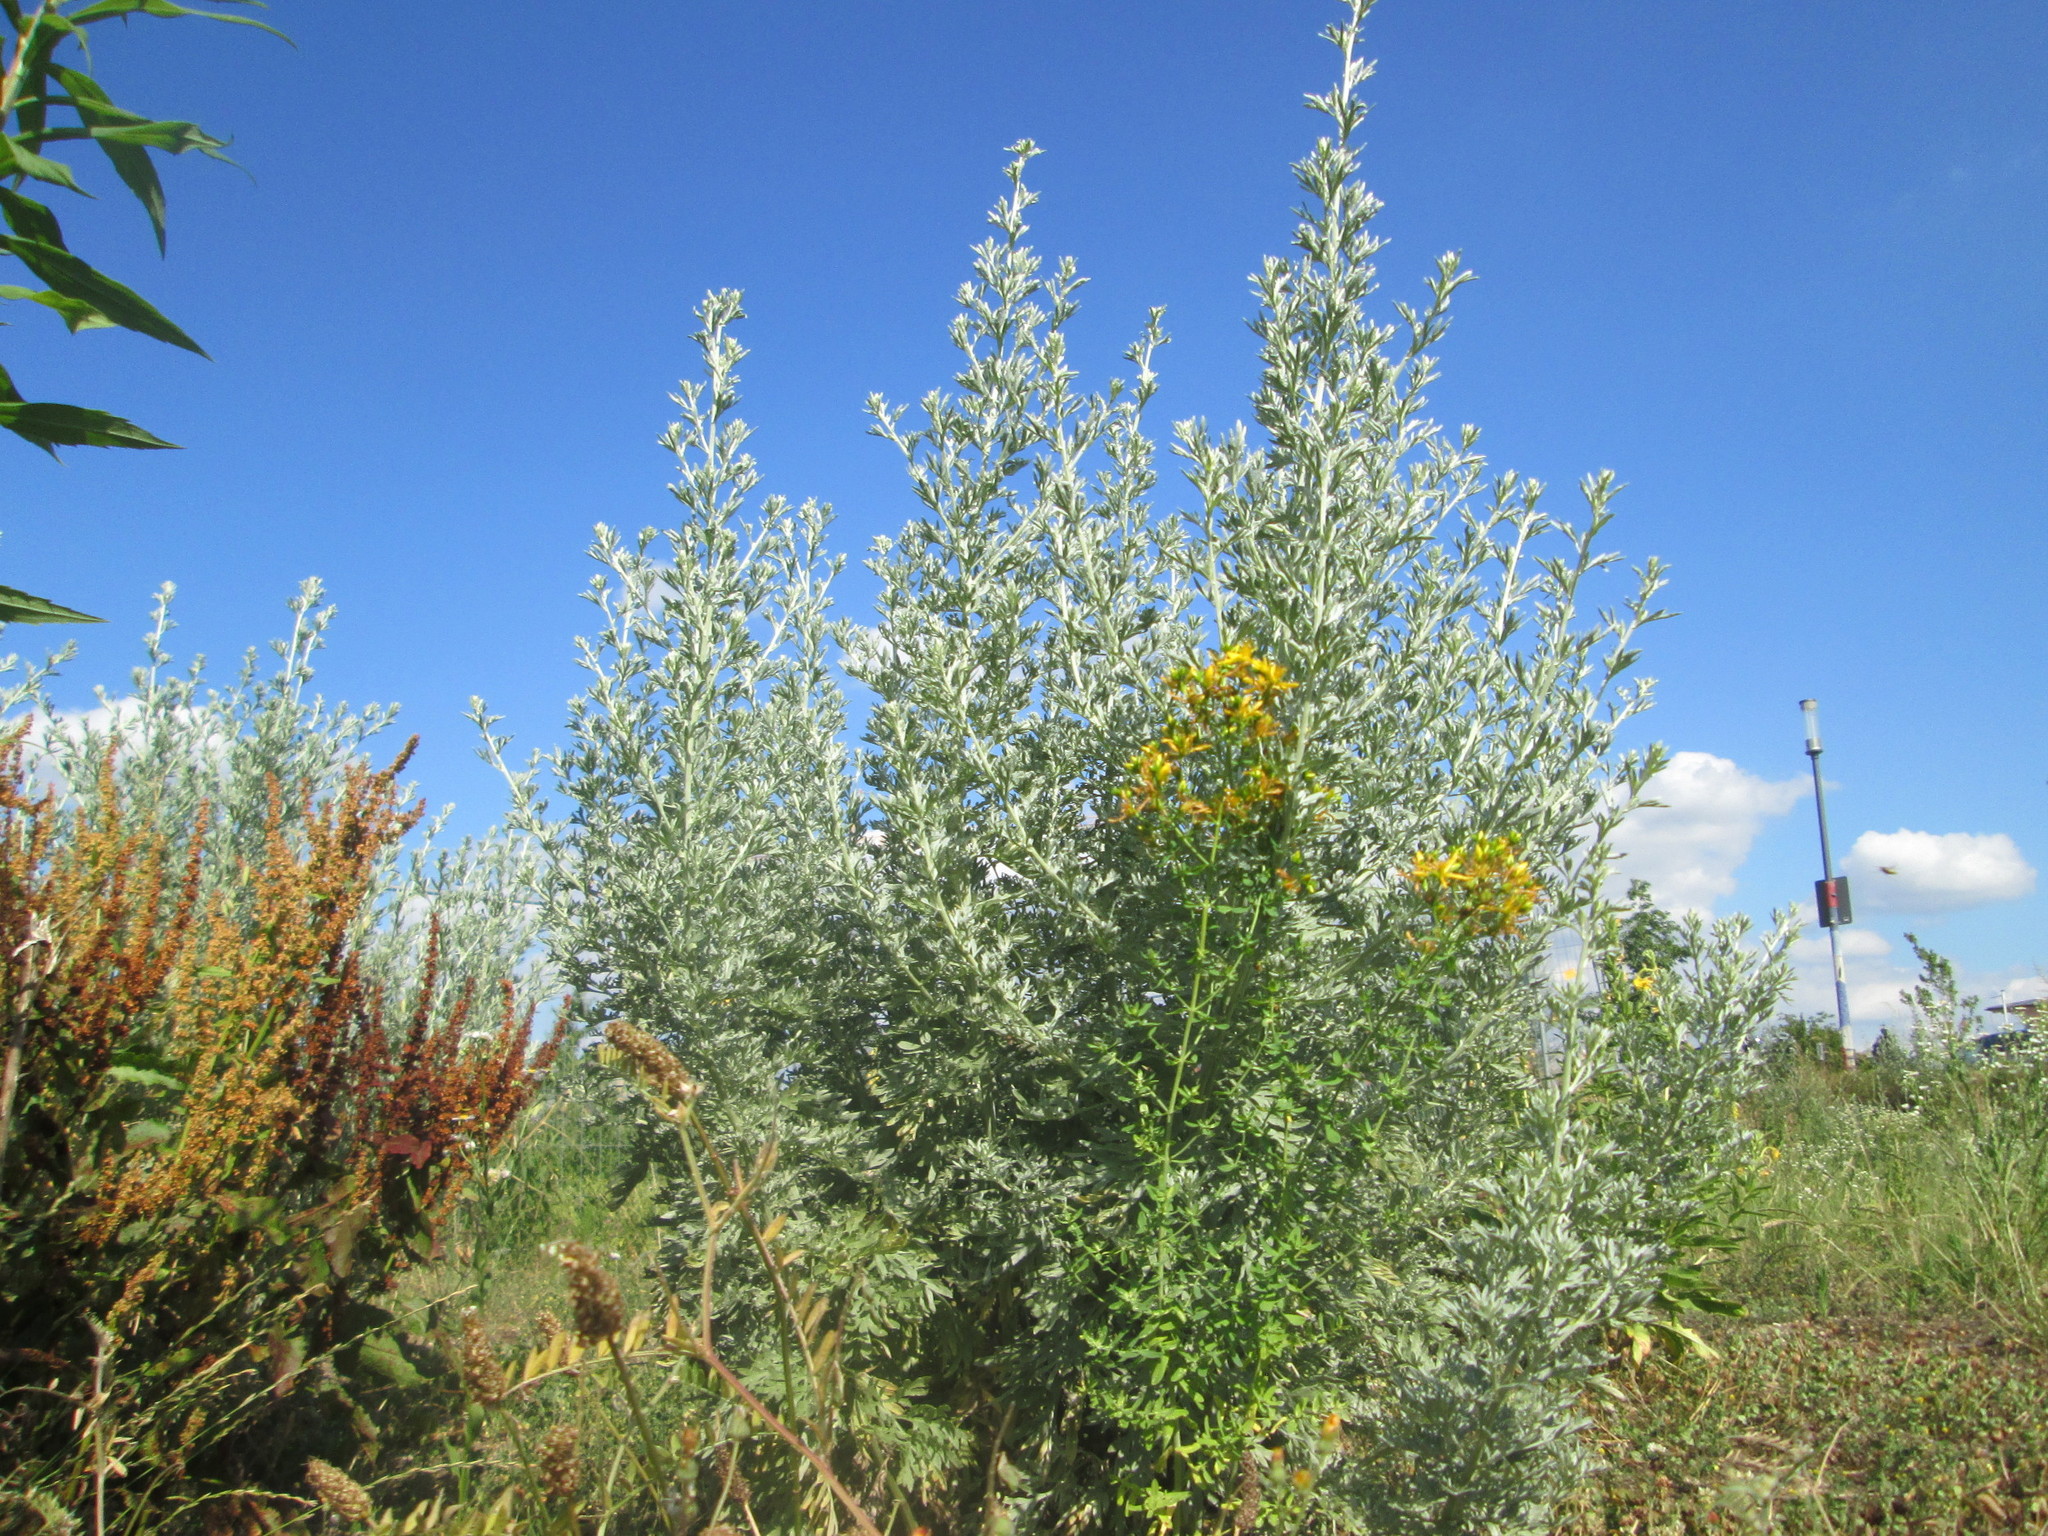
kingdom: Plantae
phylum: Tracheophyta
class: Magnoliopsida
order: Asterales
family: Asteraceae
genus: Artemisia
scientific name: Artemisia absinthium
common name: Wormwood
